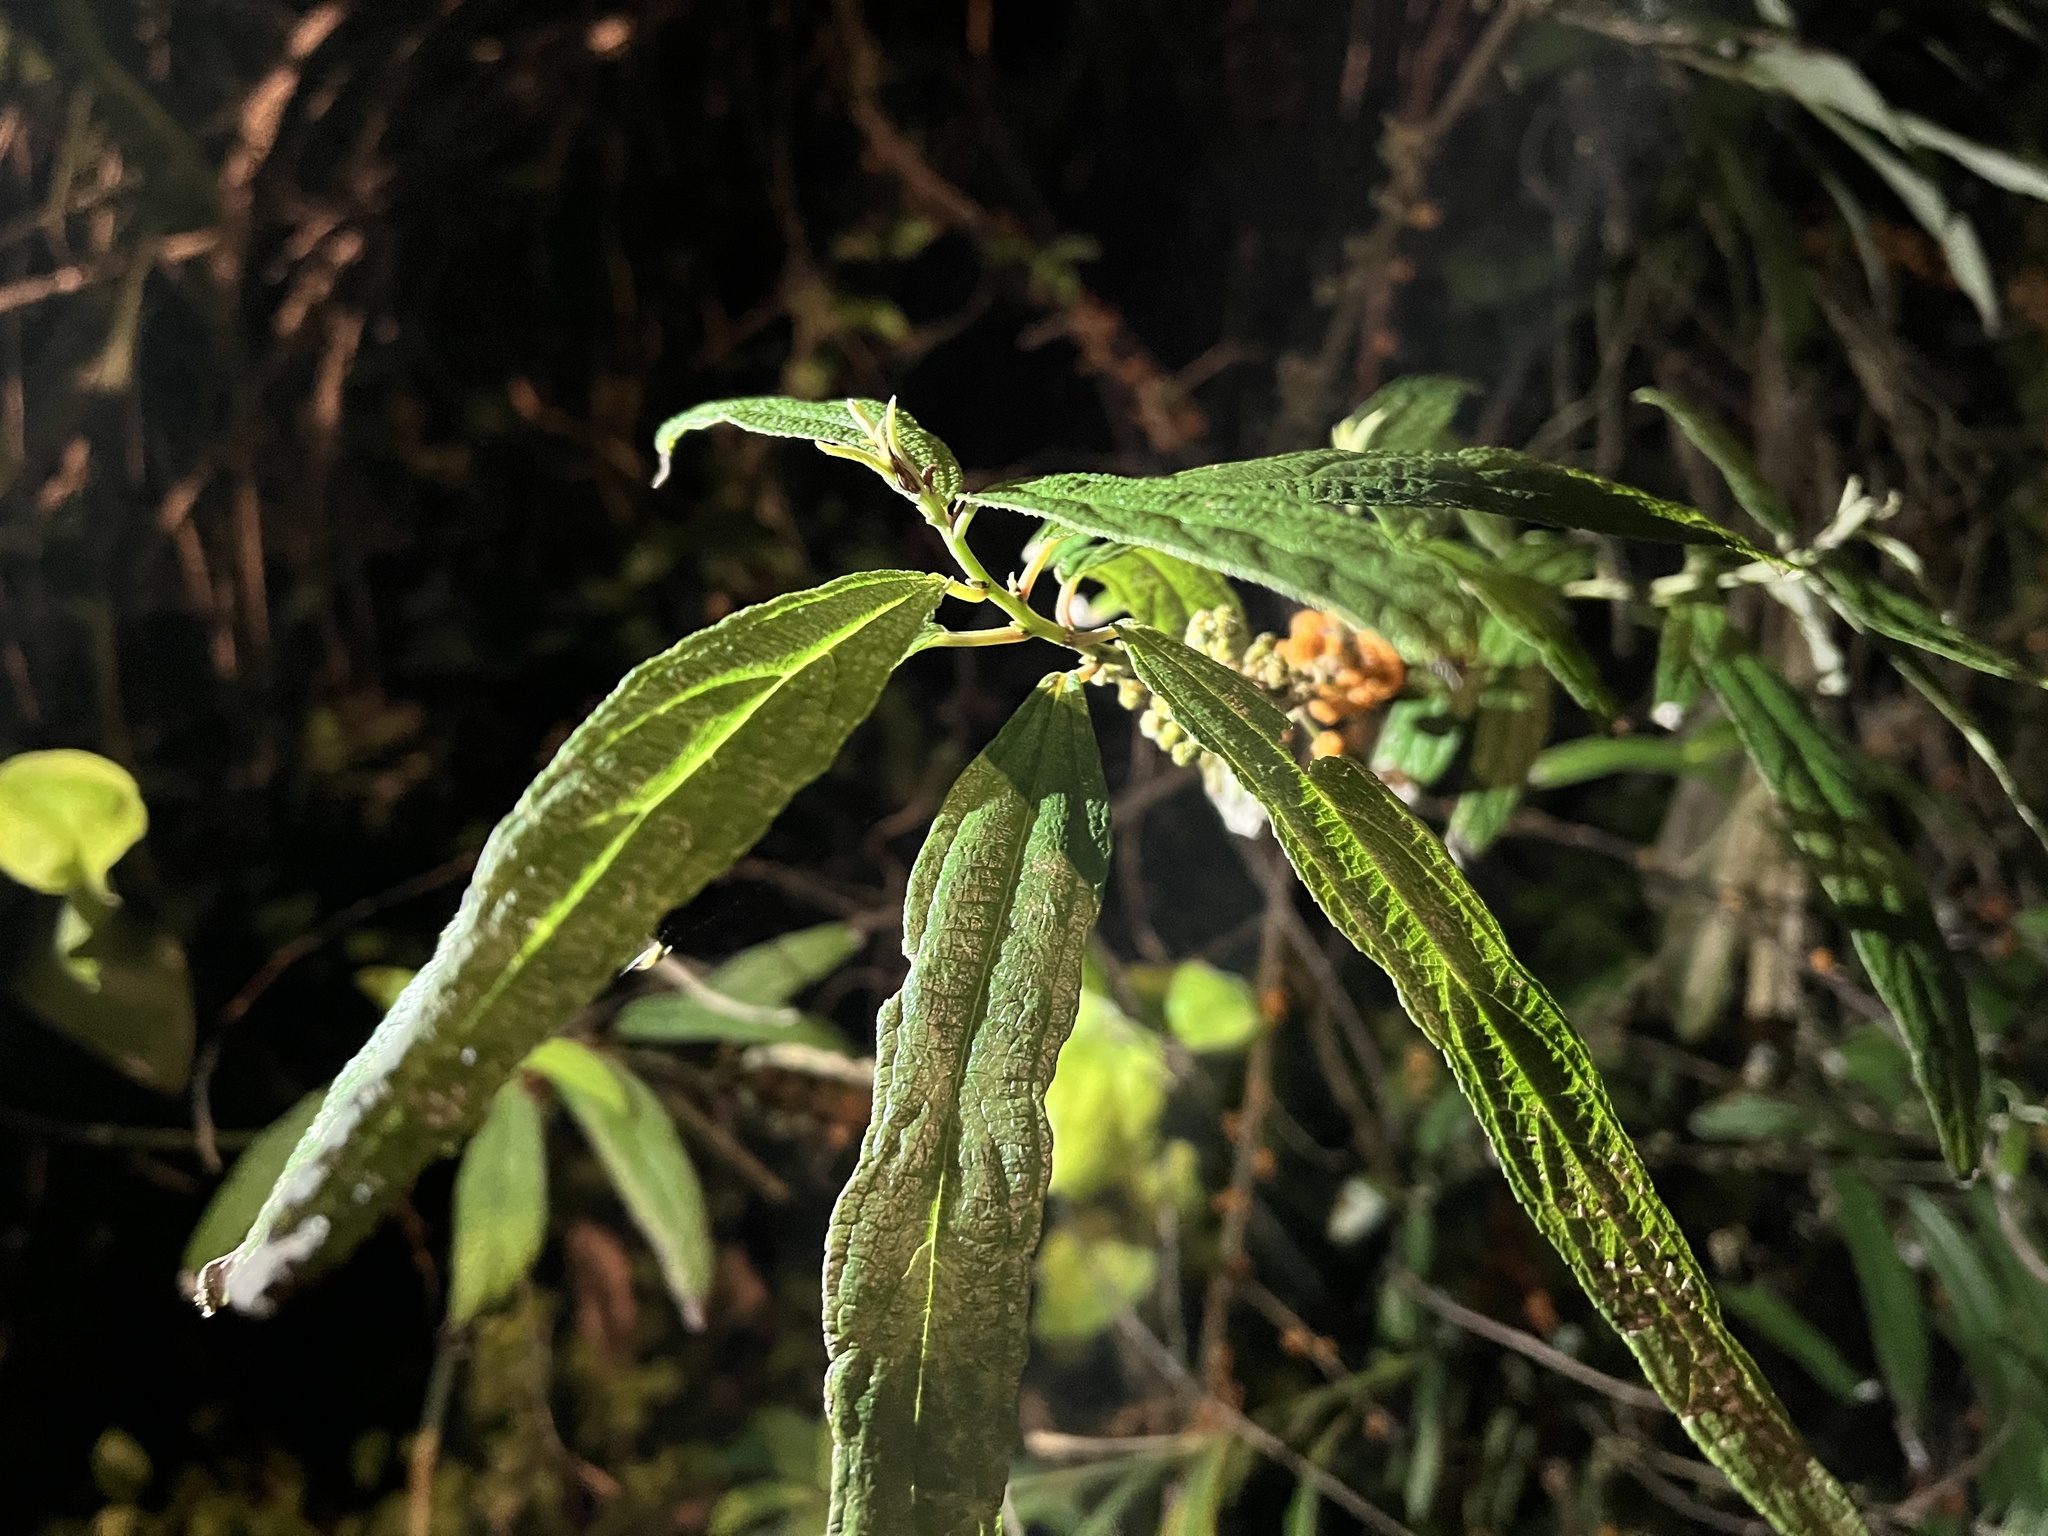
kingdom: Plantae
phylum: Tracheophyta
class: Magnoliopsida
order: Rosales
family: Urticaceae
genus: Debregeasia
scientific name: Debregeasia orientalis
